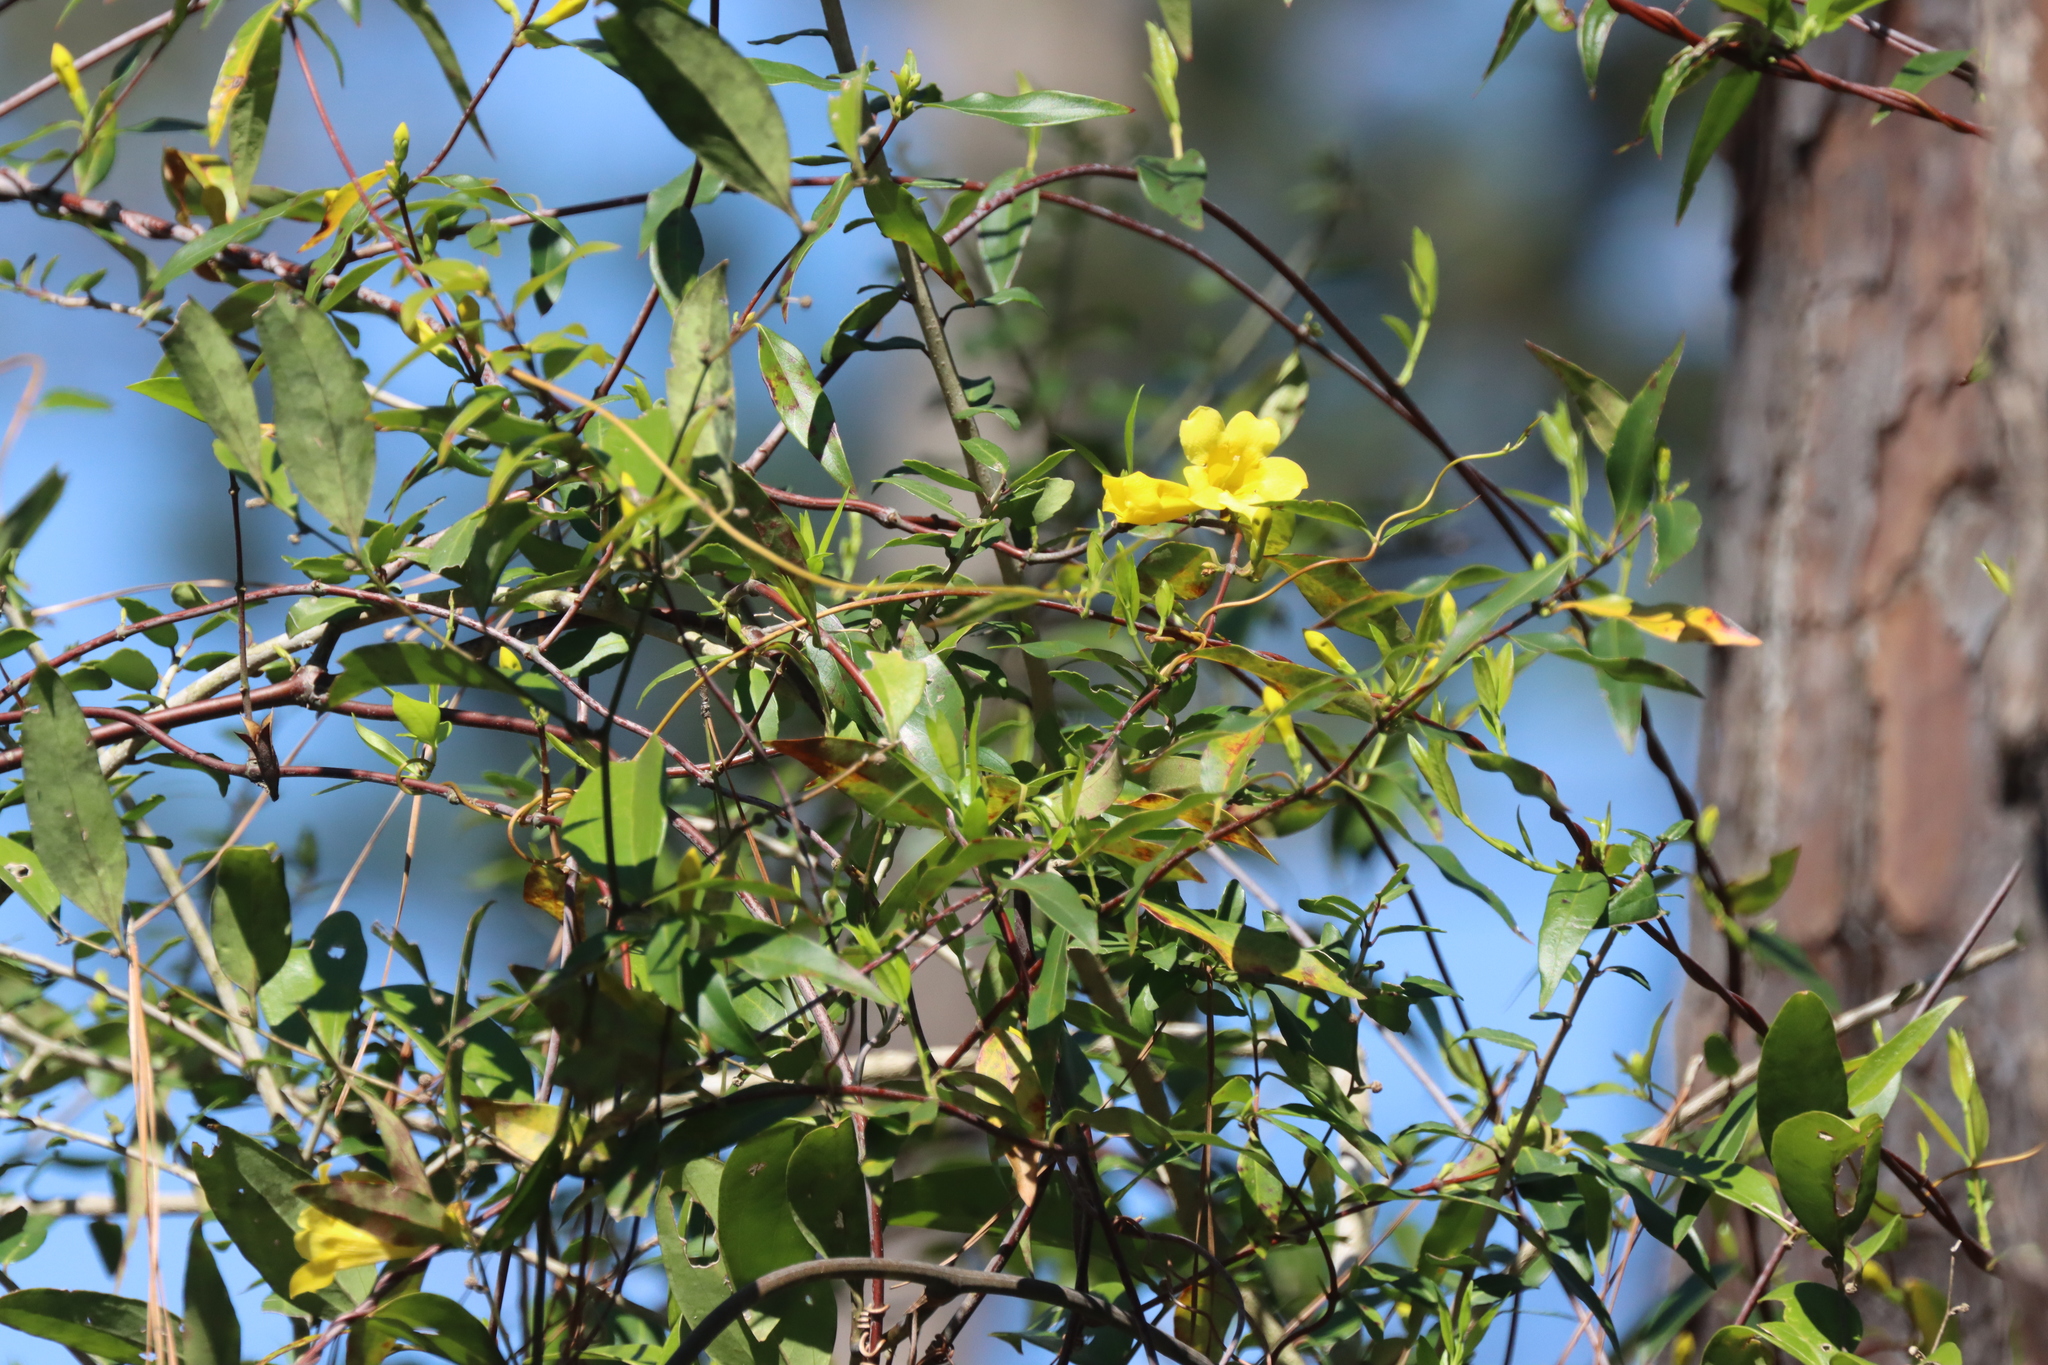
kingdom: Plantae
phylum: Tracheophyta
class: Magnoliopsida
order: Gentianales
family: Gelsemiaceae
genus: Gelsemium
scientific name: Gelsemium sempervirens
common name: Carolina-jasmine
